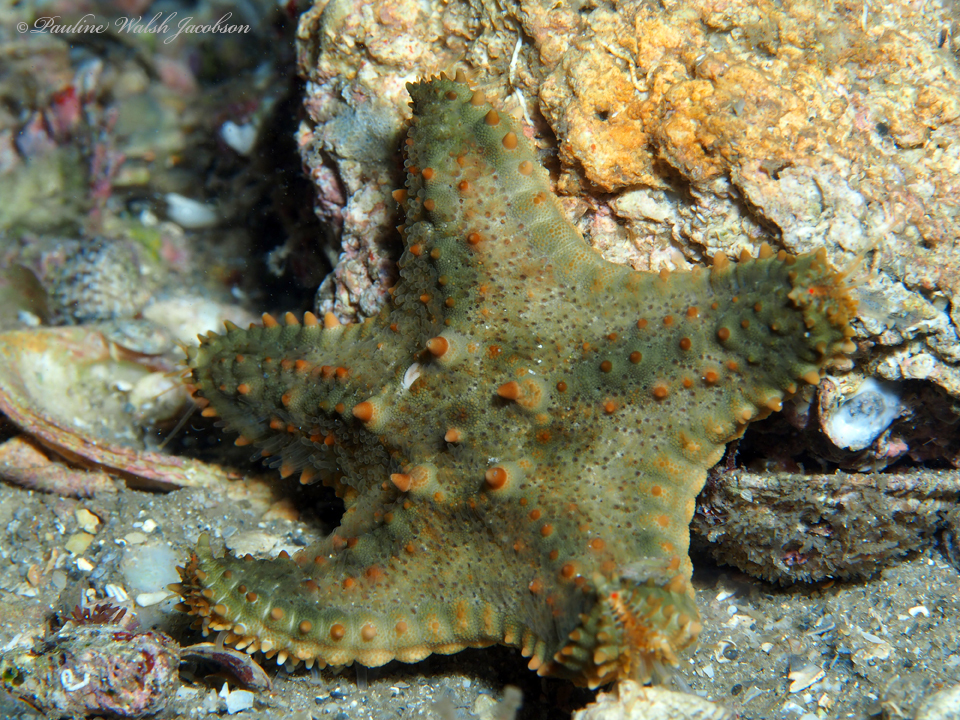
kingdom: Animalia
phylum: Echinodermata
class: Asteroidea
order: Valvatida
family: Oreasteridae
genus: Oreaster
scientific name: Oreaster reticulatus
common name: Cushion sea star
